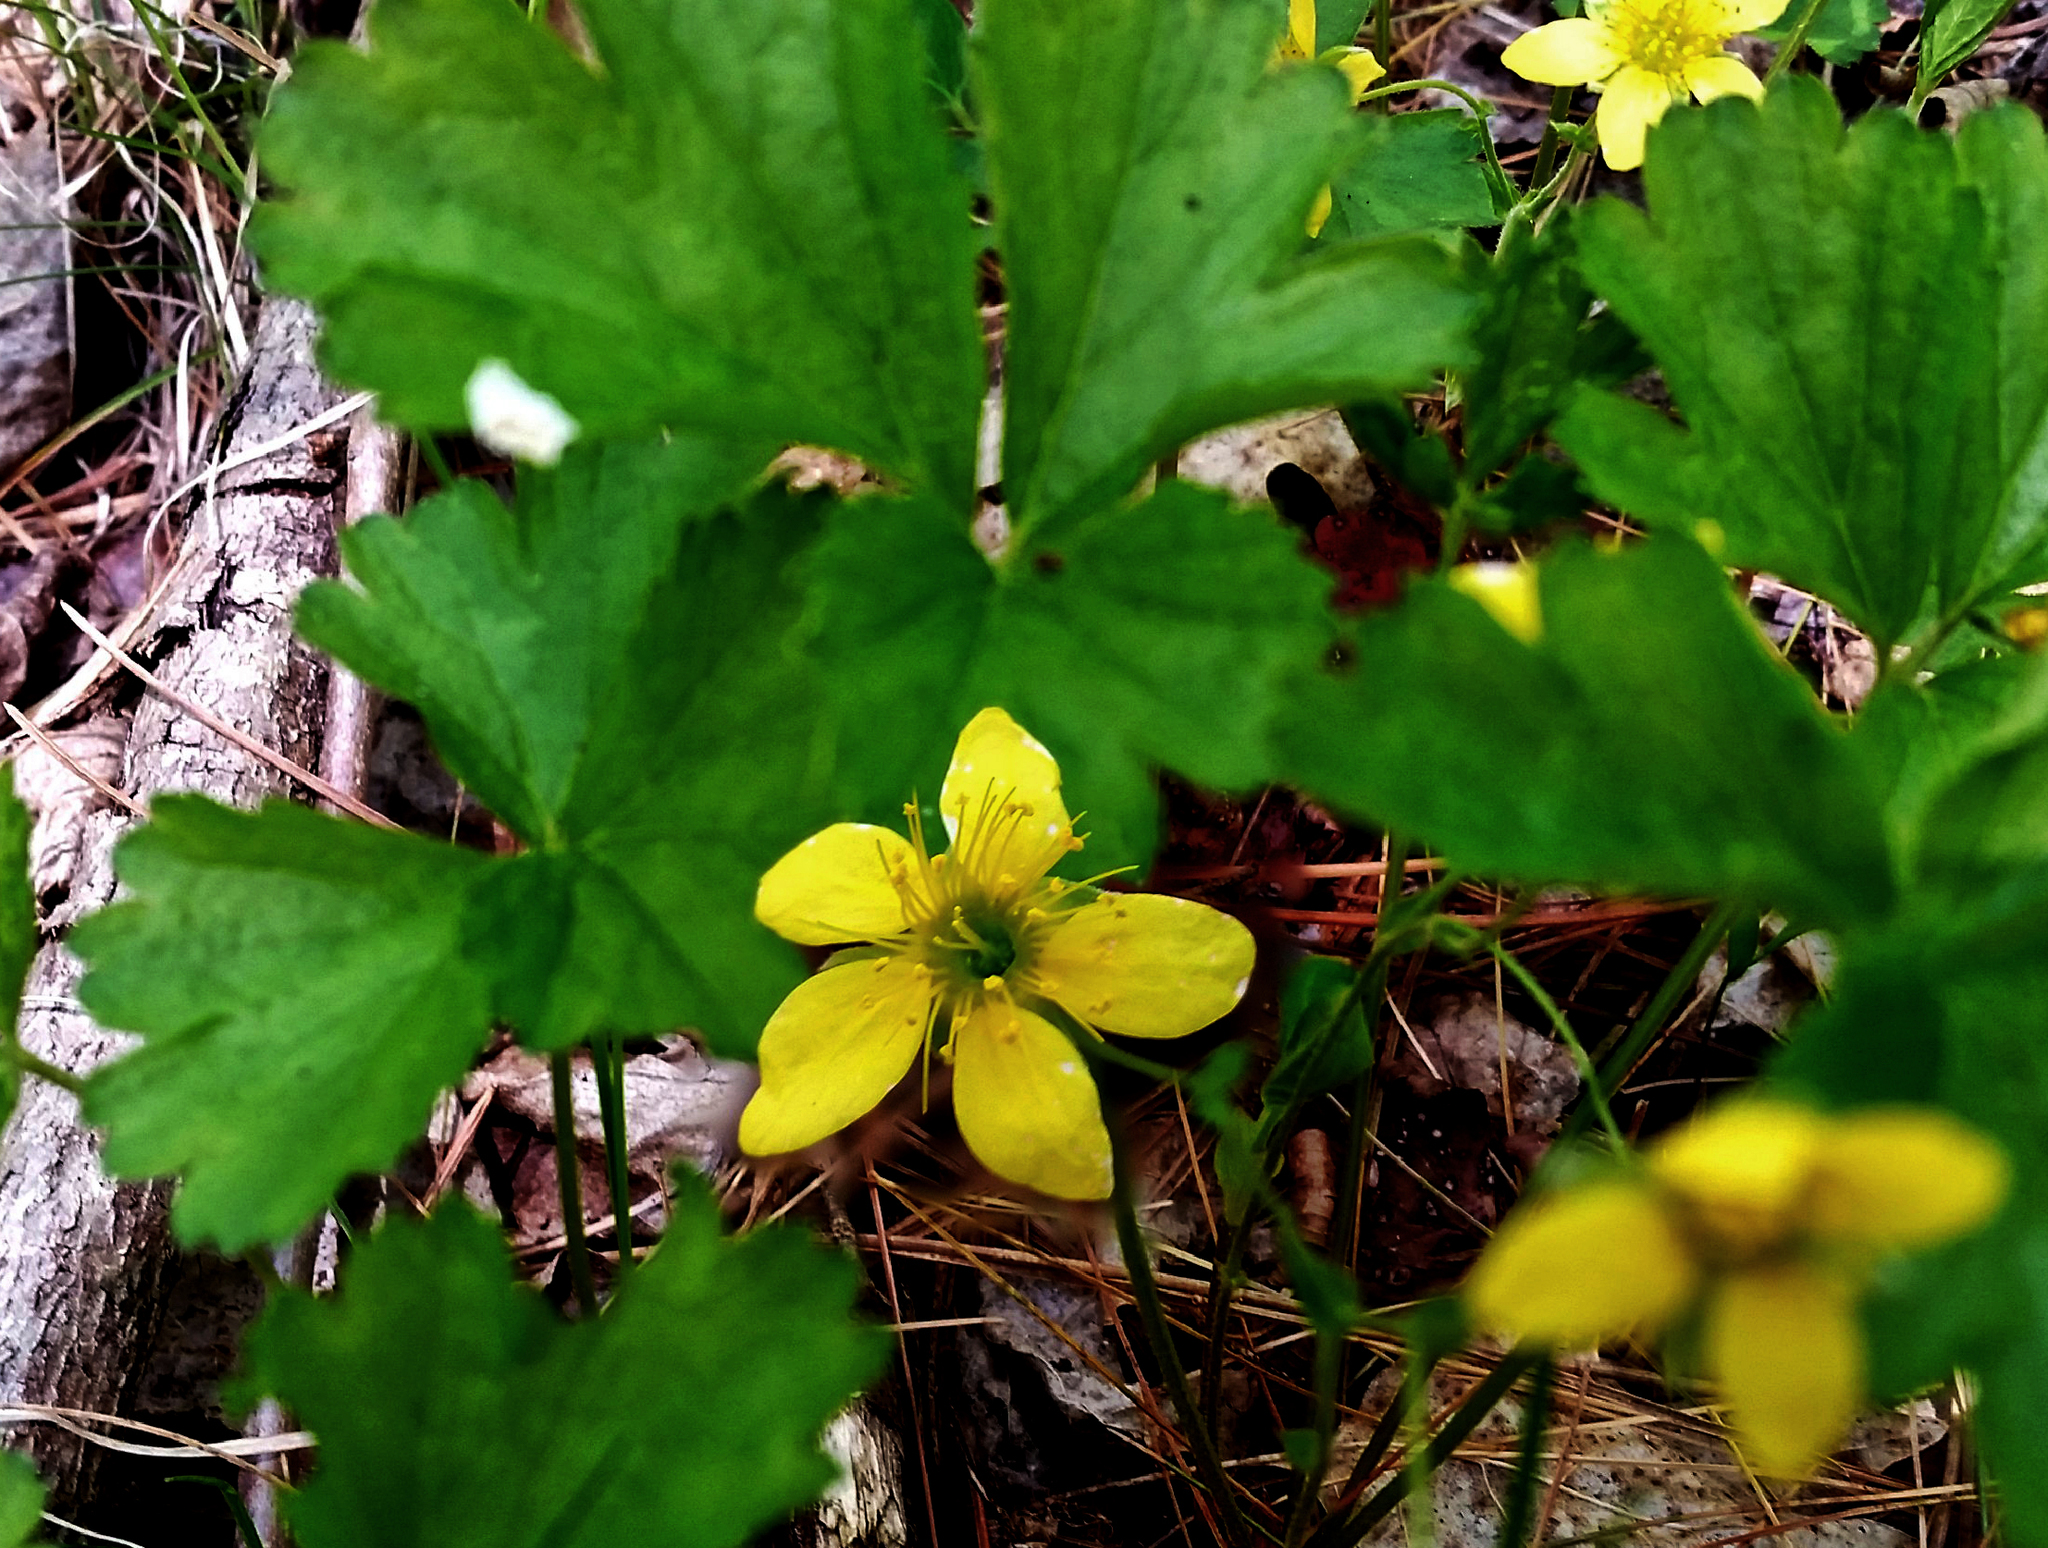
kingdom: Plantae
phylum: Tracheophyta
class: Magnoliopsida
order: Rosales
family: Rosaceae
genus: Geum
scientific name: Geum fragarioides
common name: Appalachian barren strawberry
